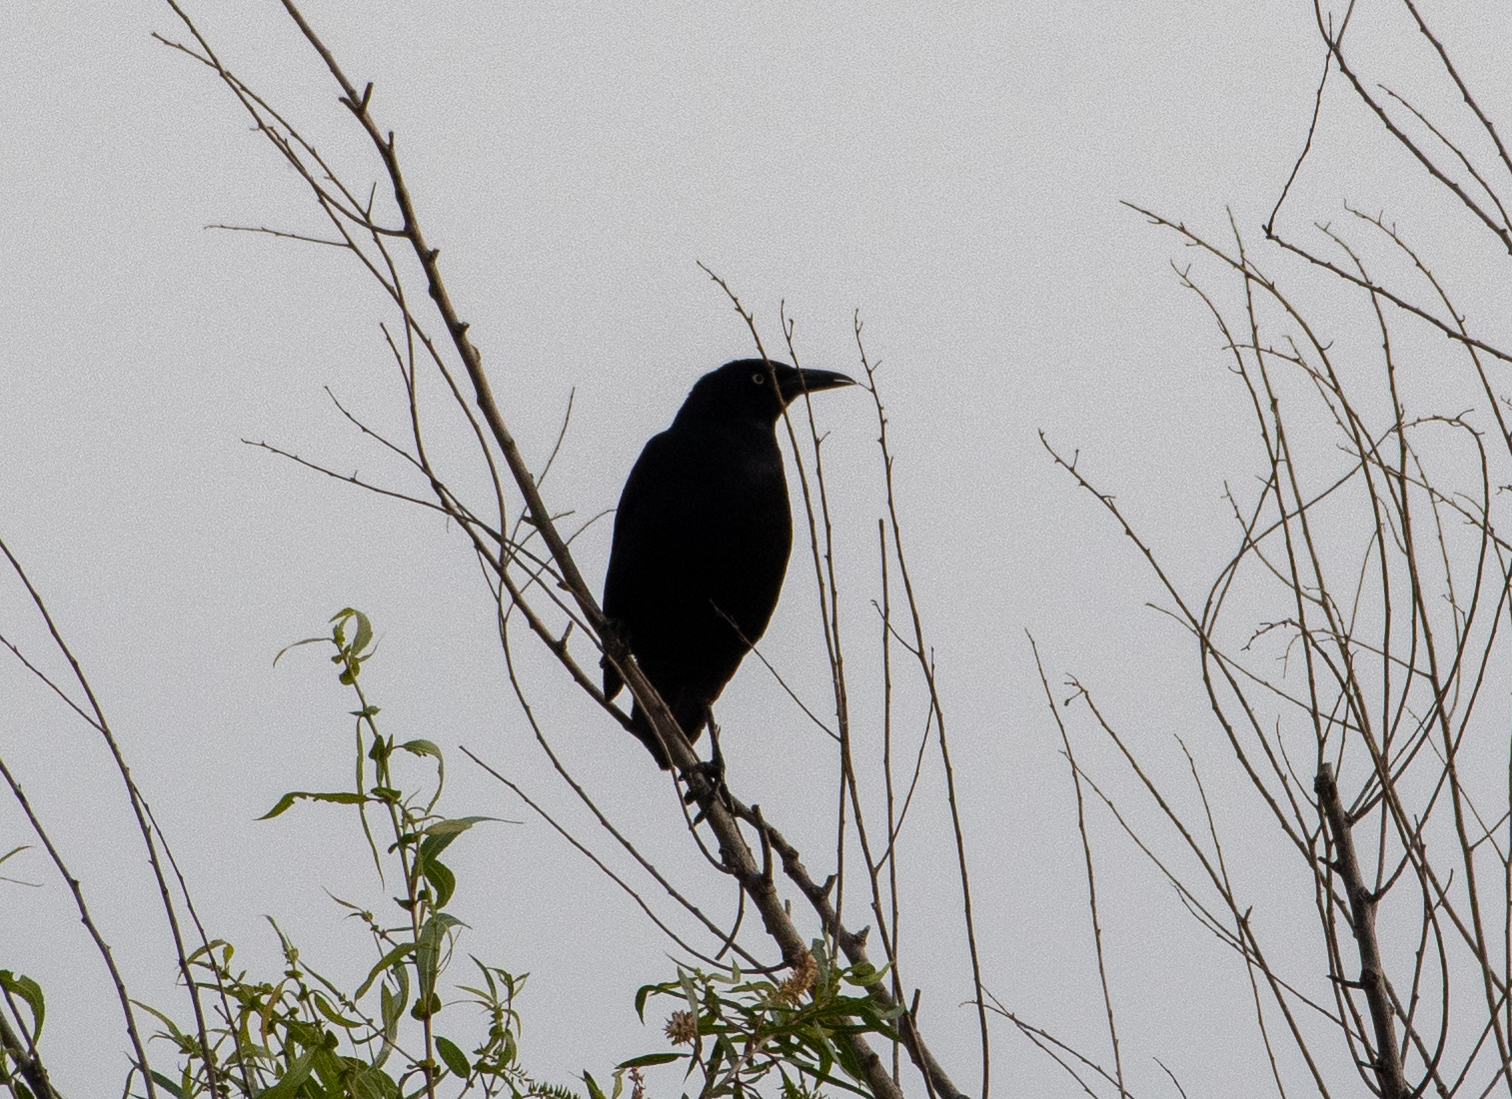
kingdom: Animalia
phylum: Chordata
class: Aves
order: Passeriformes
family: Icteridae
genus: Quiscalus
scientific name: Quiscalus mexicanus
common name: Great-tailed grackle
